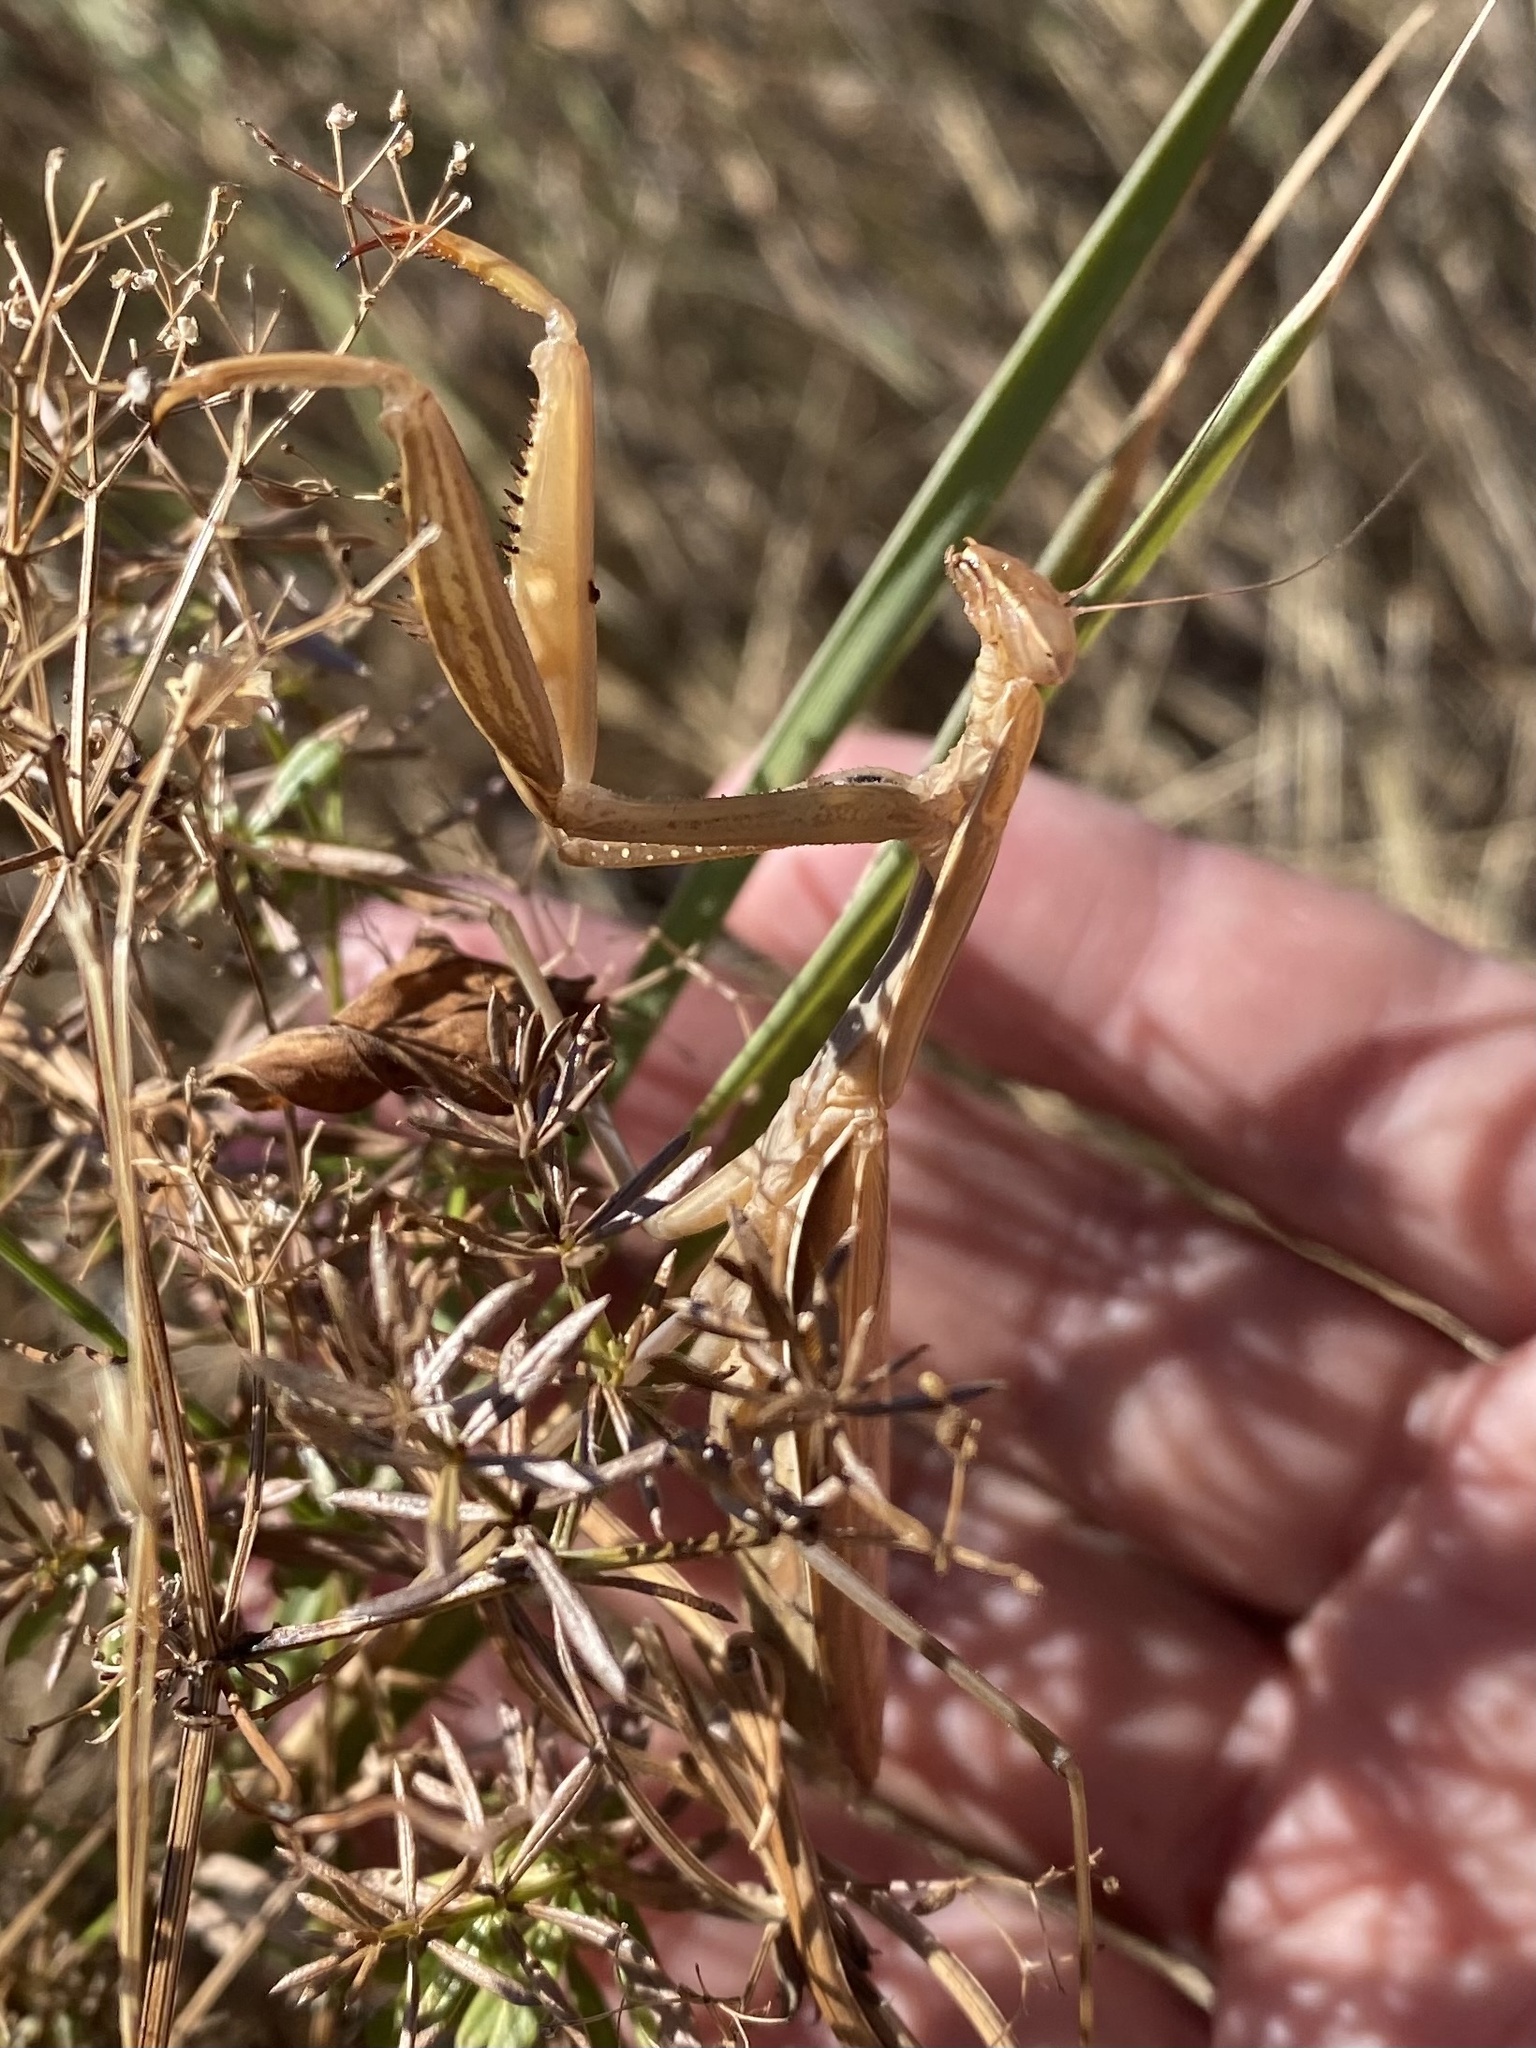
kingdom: Animalia
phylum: Arthropoda
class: Insecta
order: Mantodea
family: Mantidae
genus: Mantis
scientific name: Mantis religiosa
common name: Praying mantis
